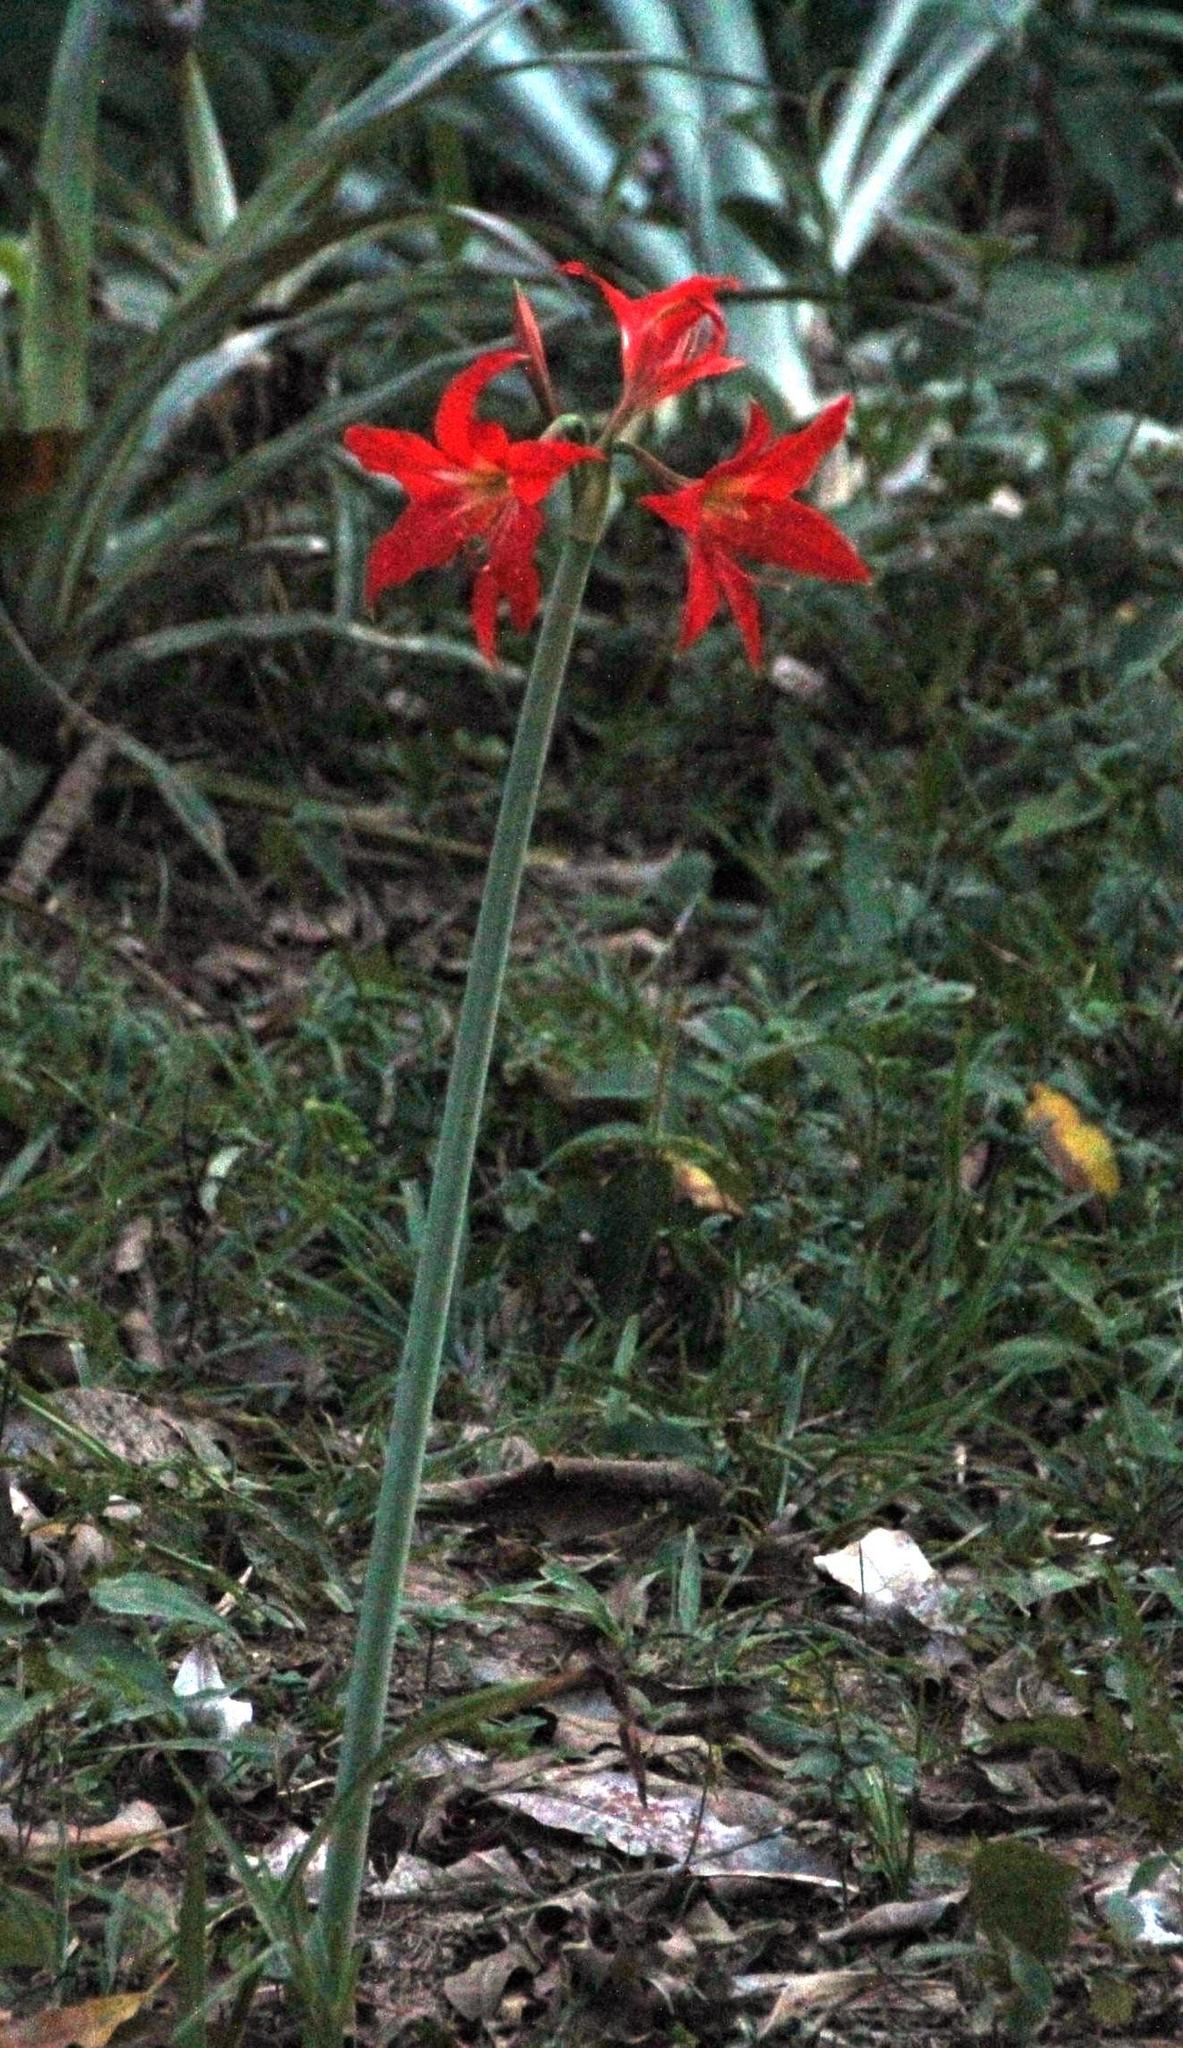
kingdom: Plantae
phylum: Tracheophyta
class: Liliopsida
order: Asparagales
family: Amaryllidaceae
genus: Hippeastrum
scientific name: Hippeastrum reginae
